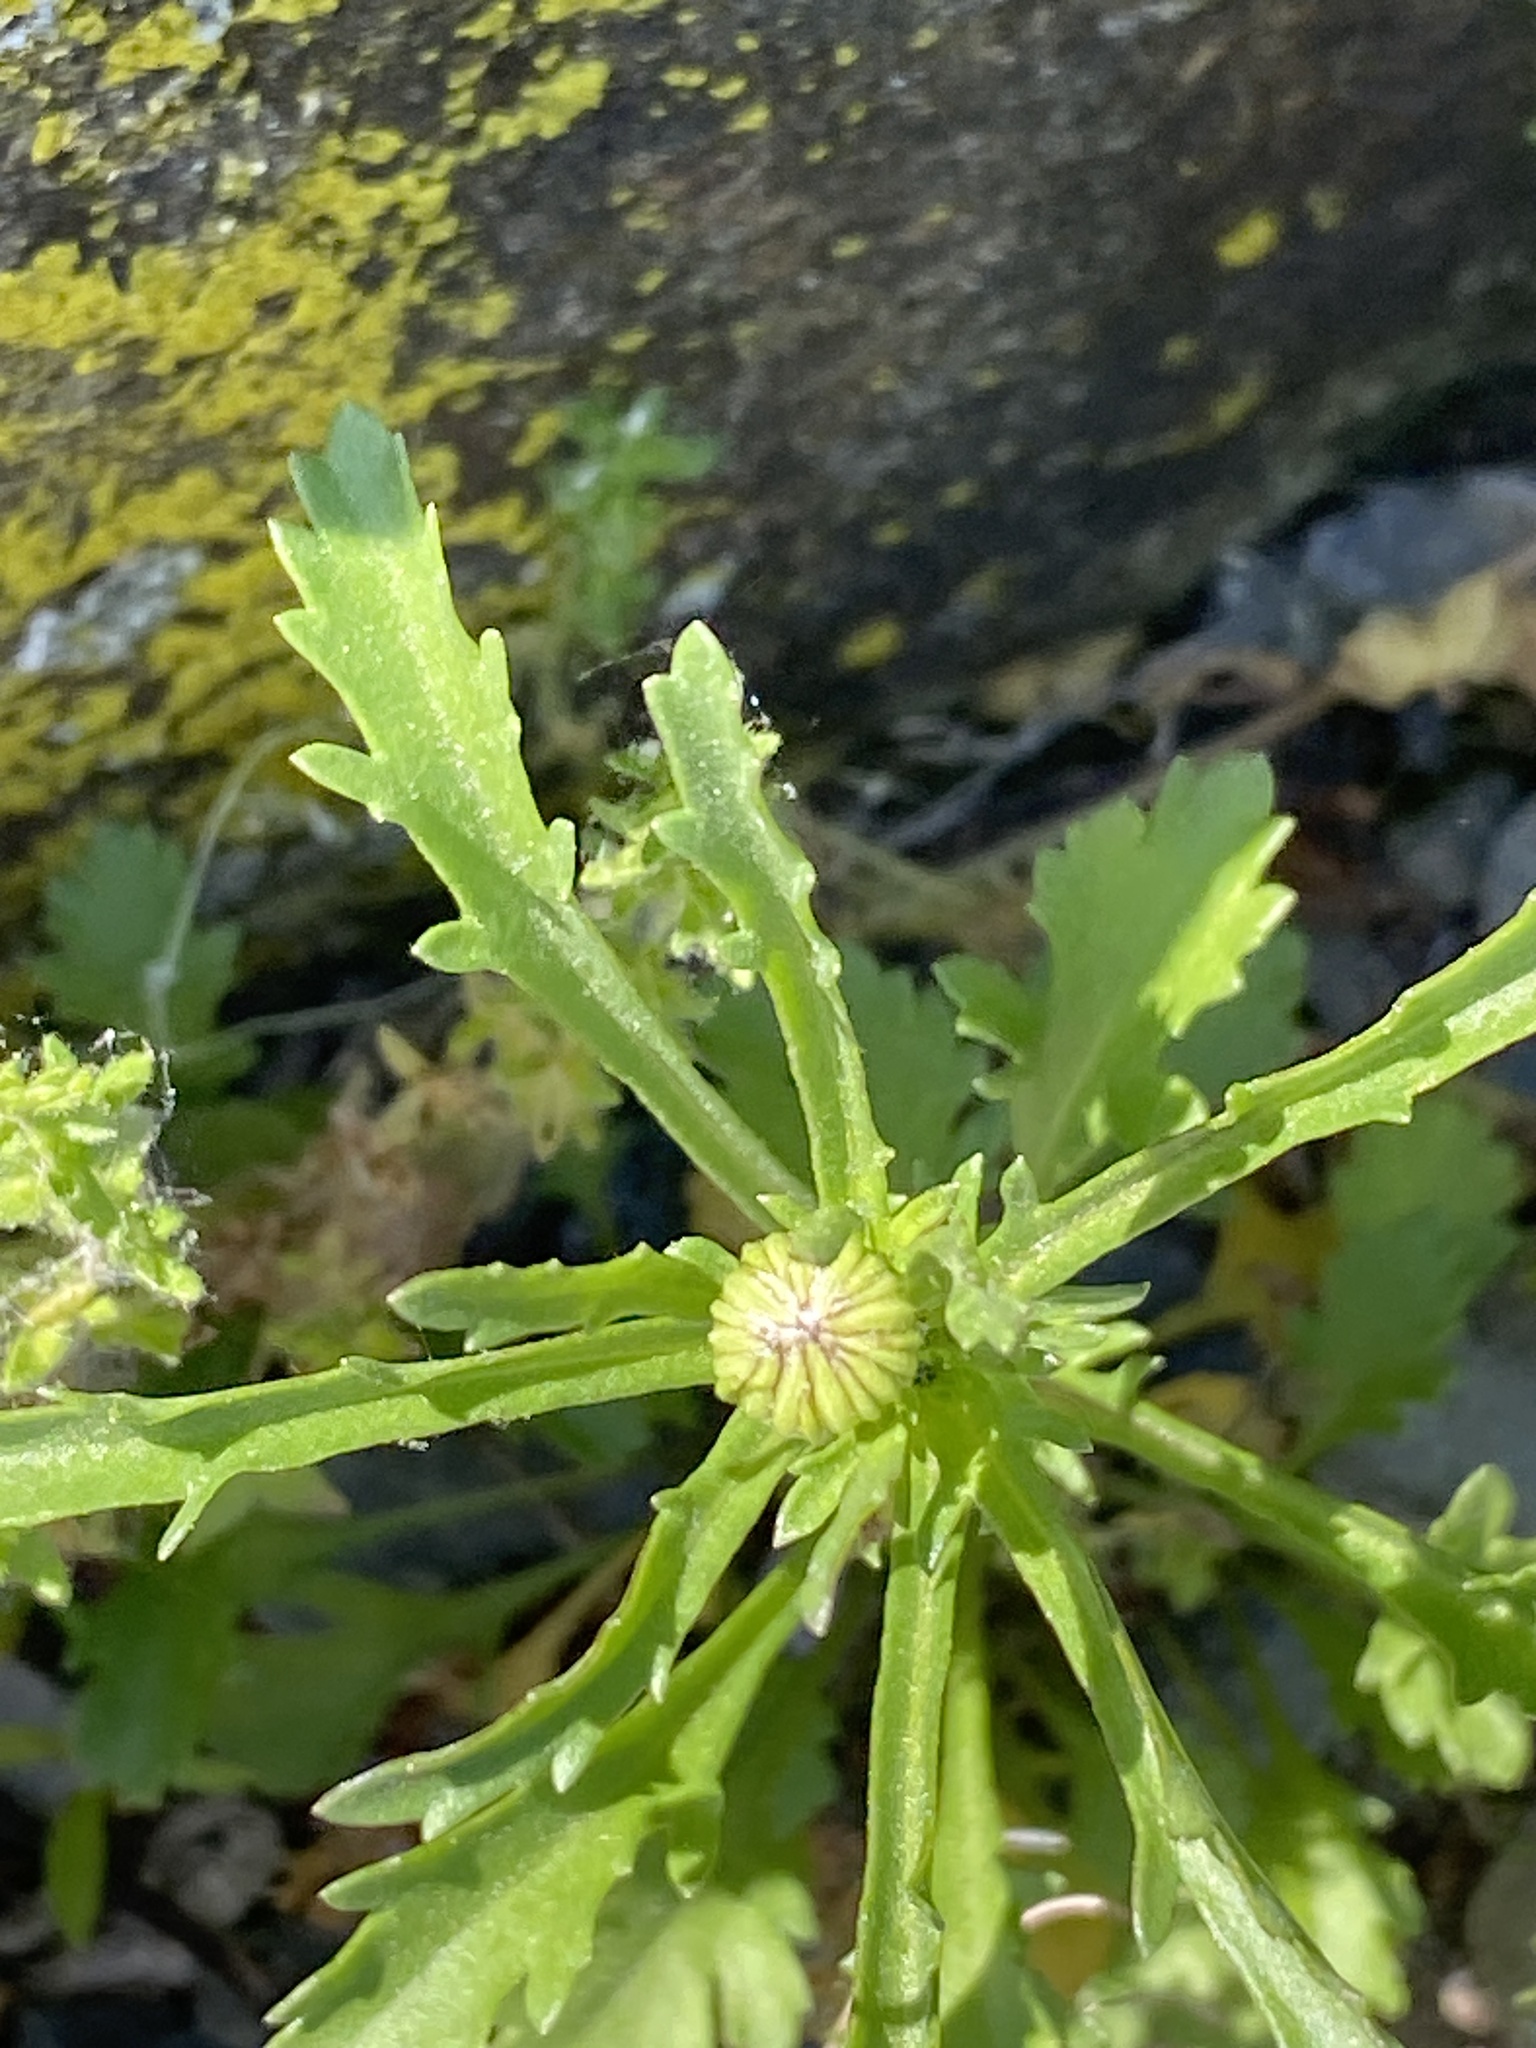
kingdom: Plantae
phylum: Tracheophyta
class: Magnoliopsida
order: Asterales
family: Asteraceae
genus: Leucanthemum
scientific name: Leucanthemum vulgare
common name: Oxeye daisy
